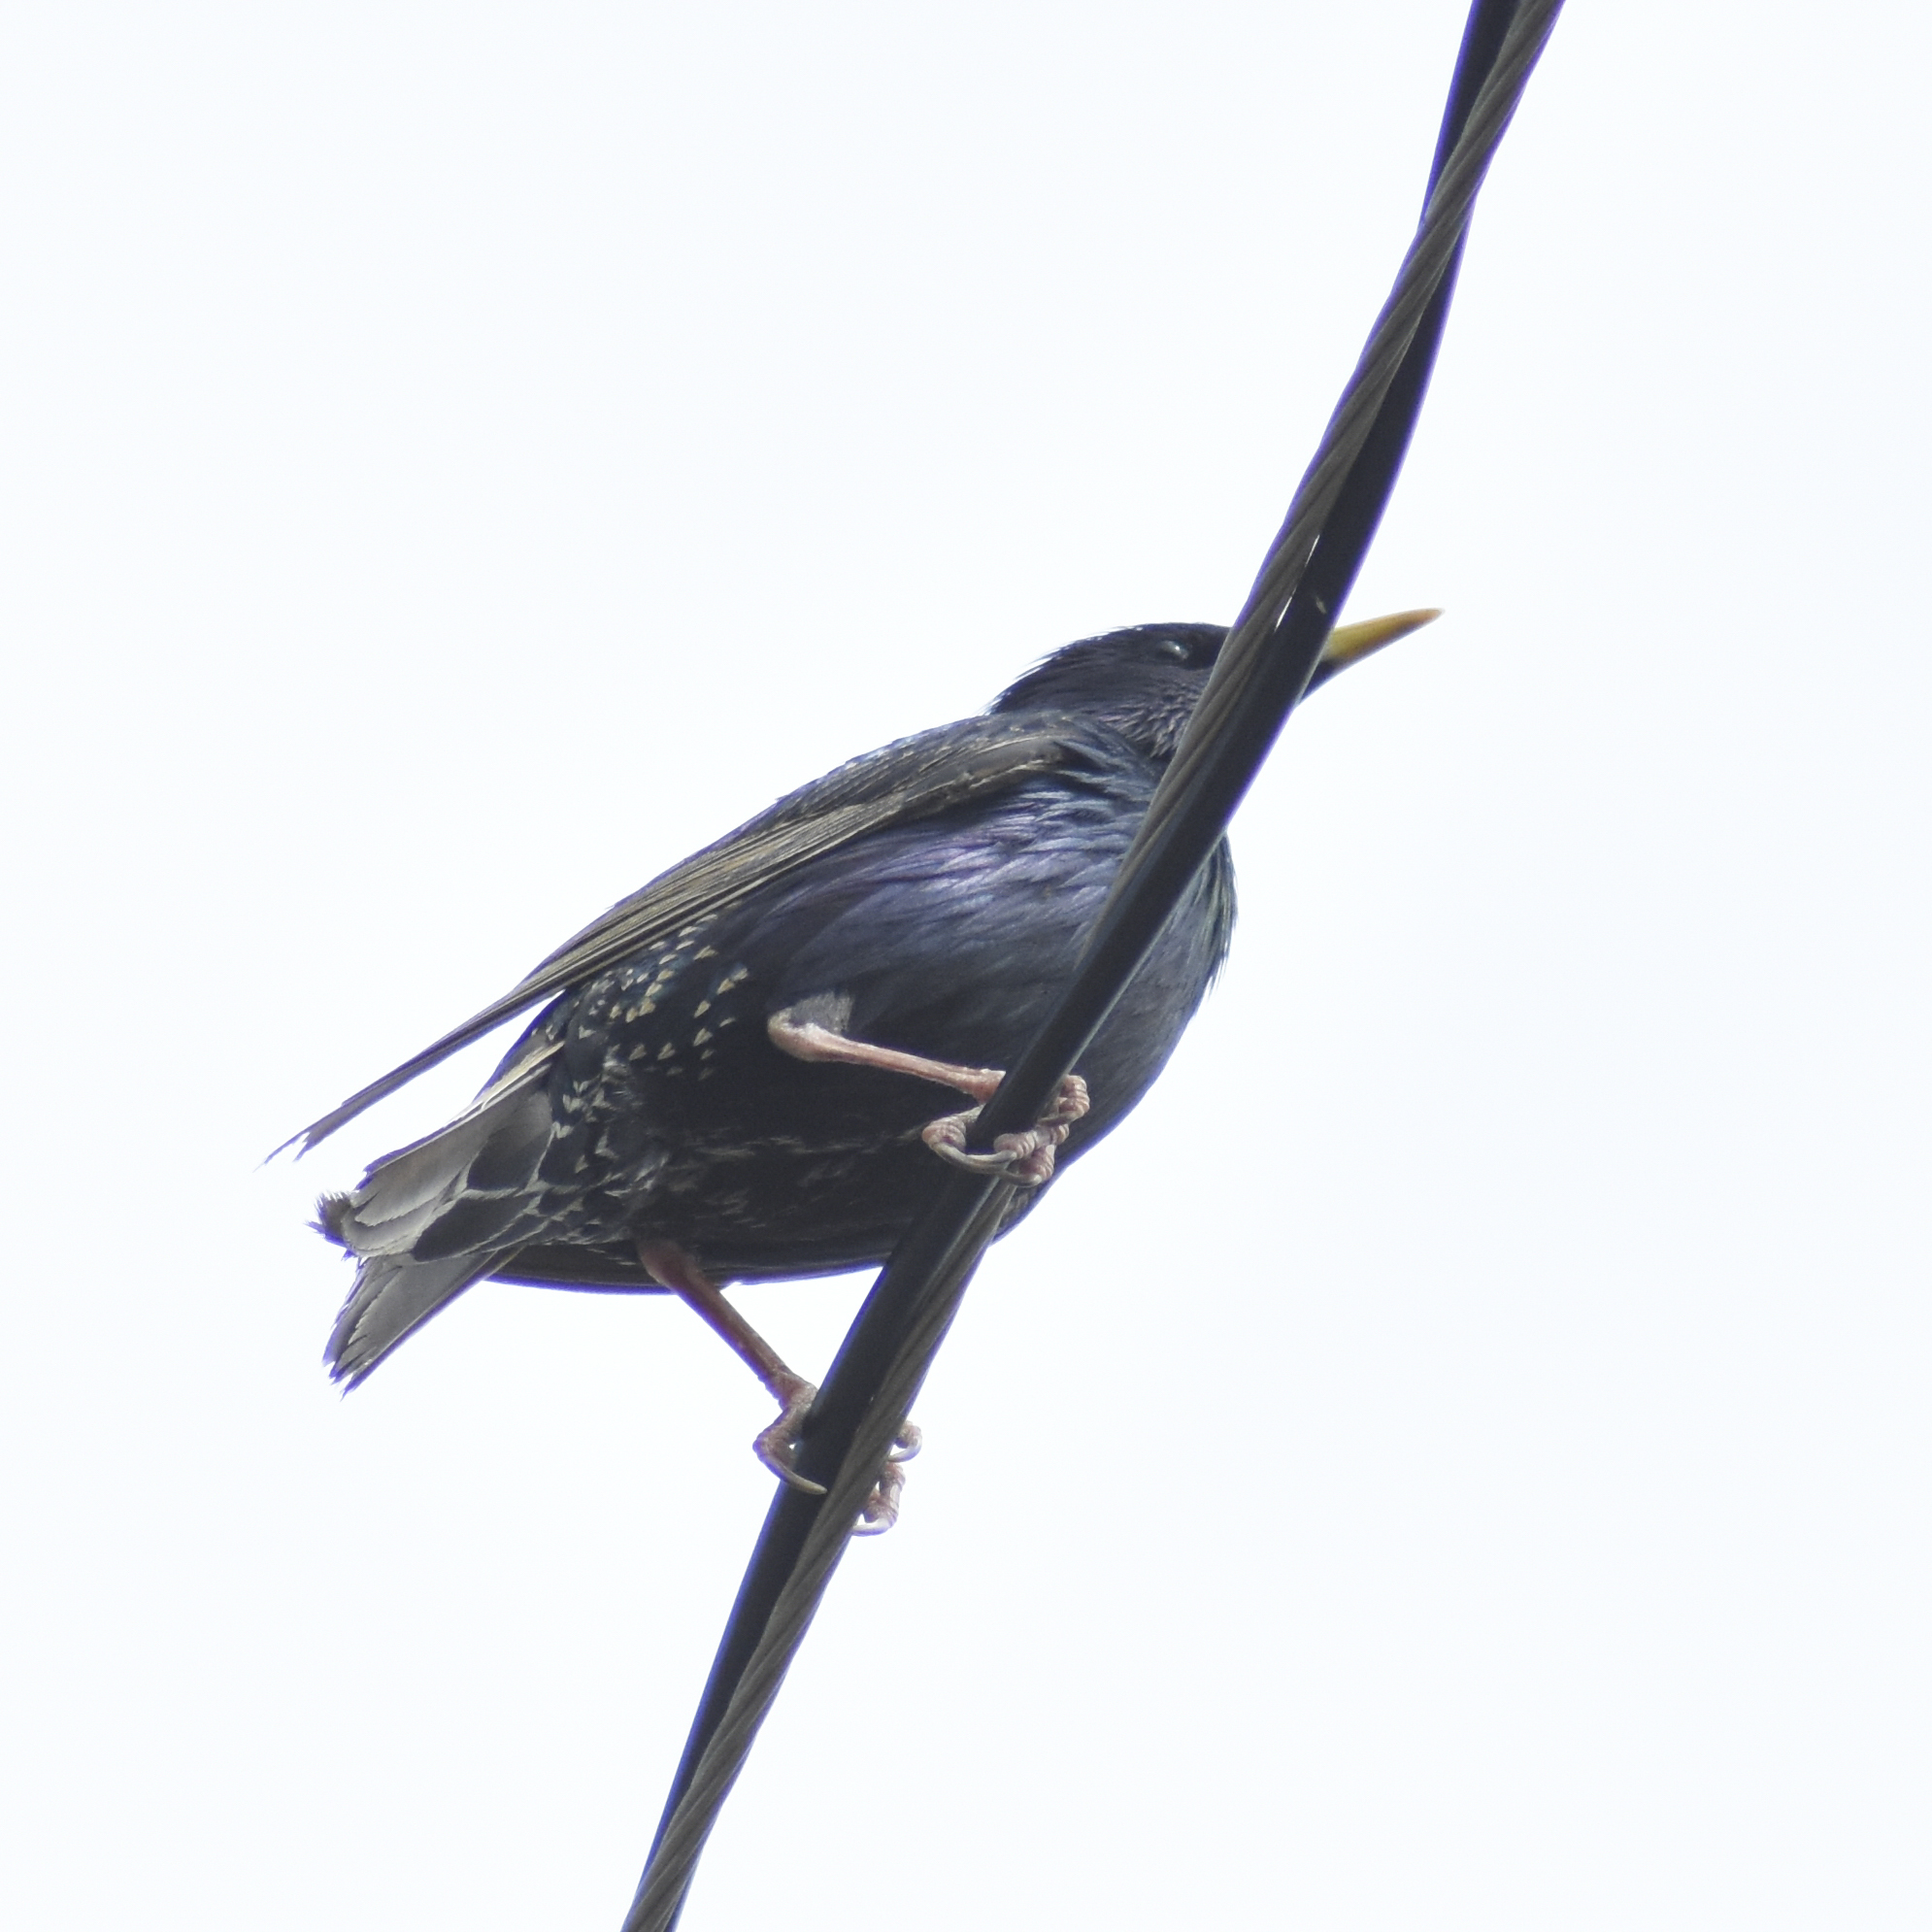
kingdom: Animalia
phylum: Chordata
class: Aves
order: Passeriformes
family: Sturnidae
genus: Sturnus
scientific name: Sturnus vulgaris
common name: Common starling
